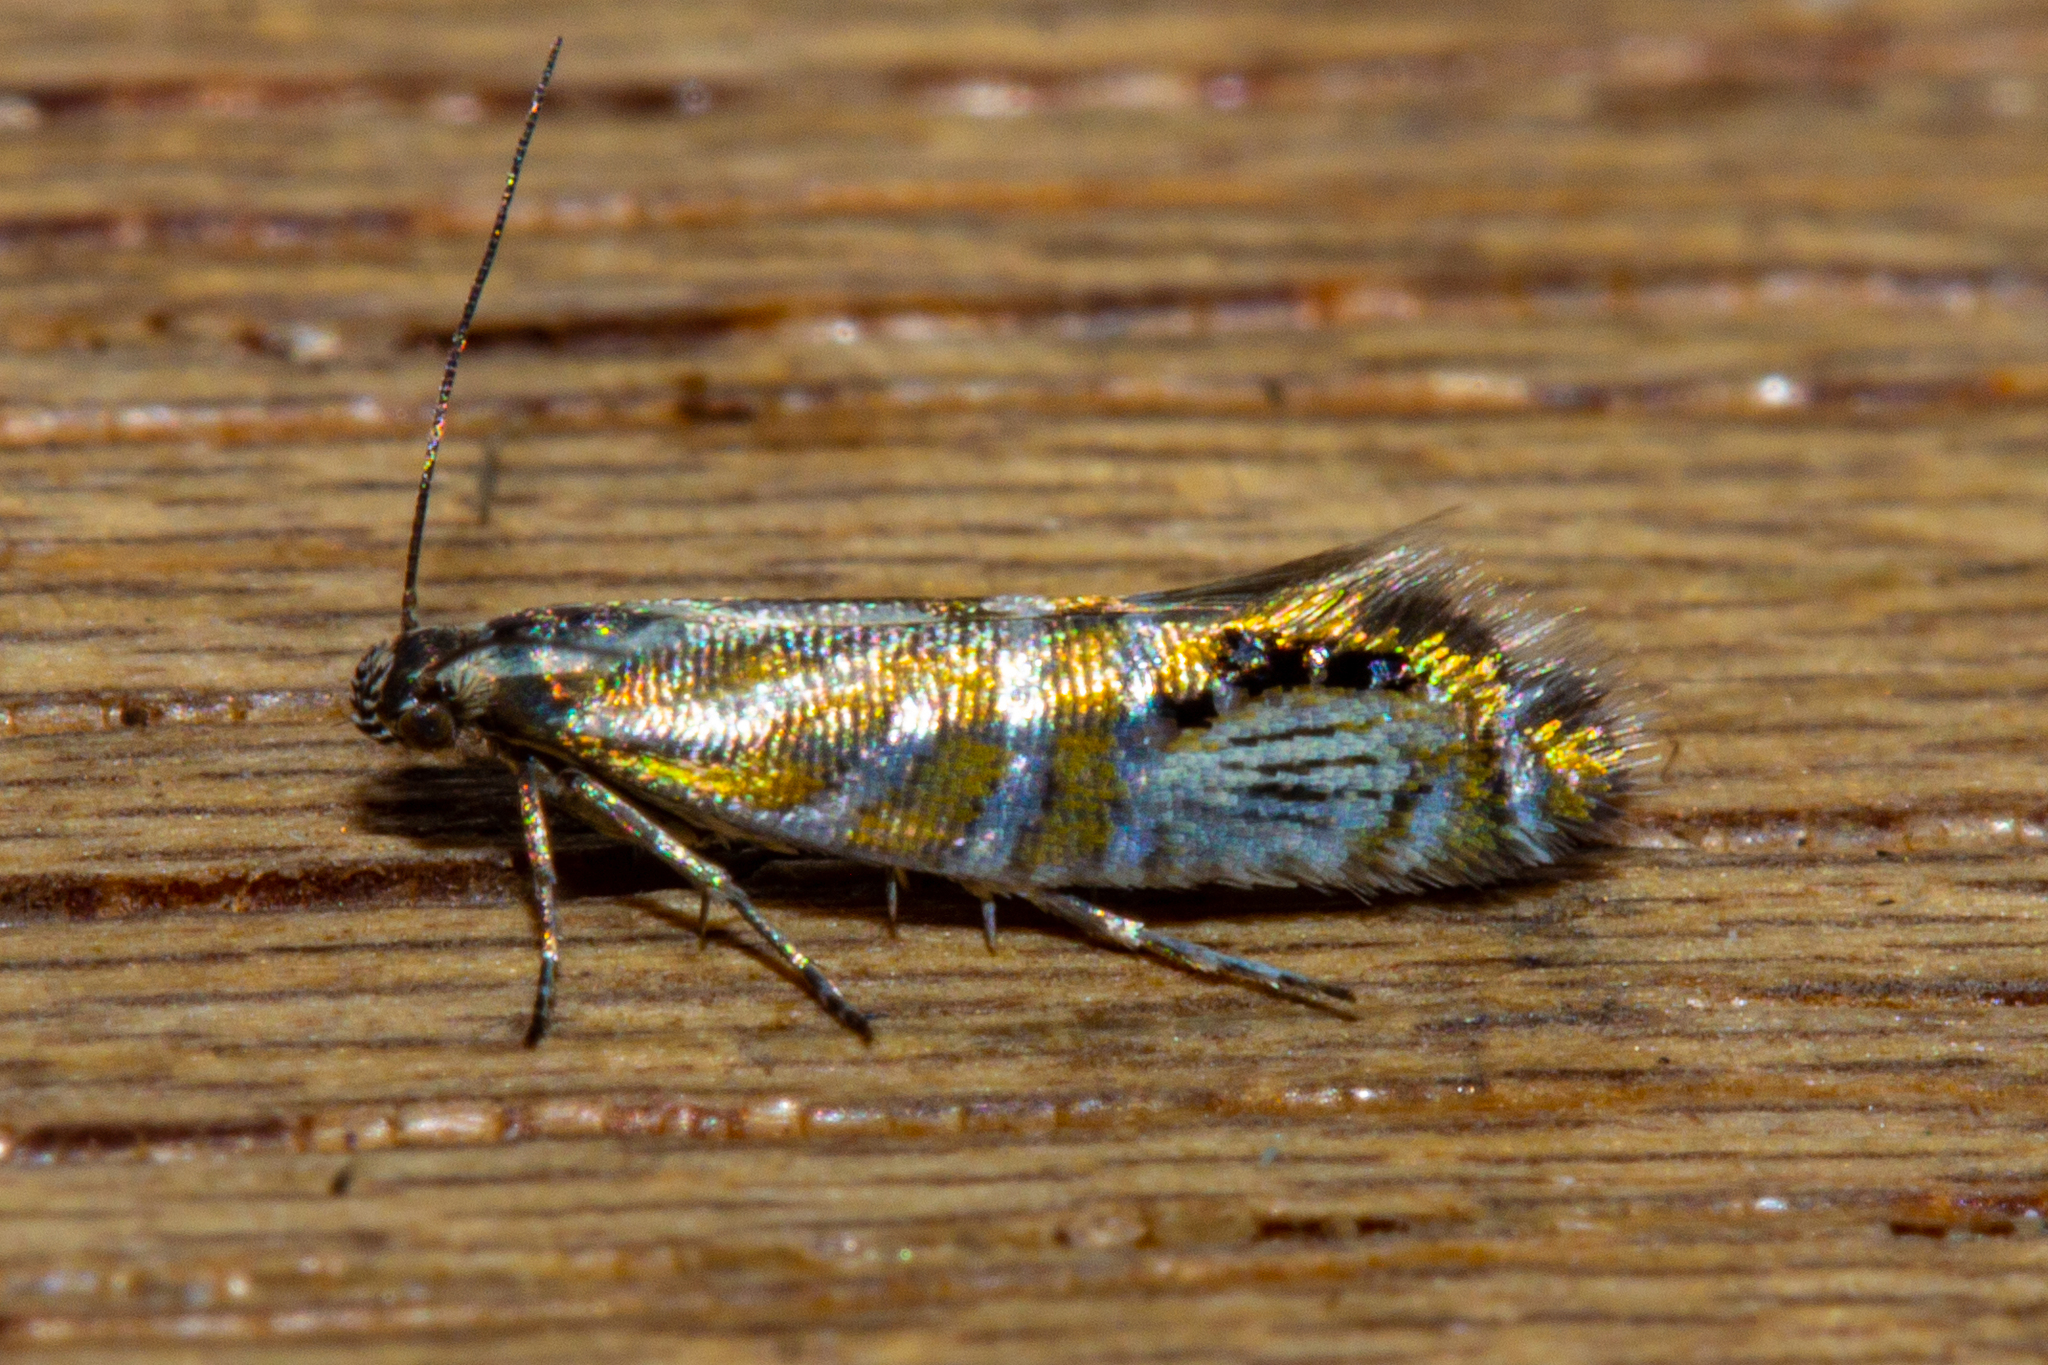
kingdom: Animalia
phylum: Arthropoda
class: Insecta
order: Lepidoptera
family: Glyphipterigidae
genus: Glyphipterix
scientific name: Glyphipterix triselena
